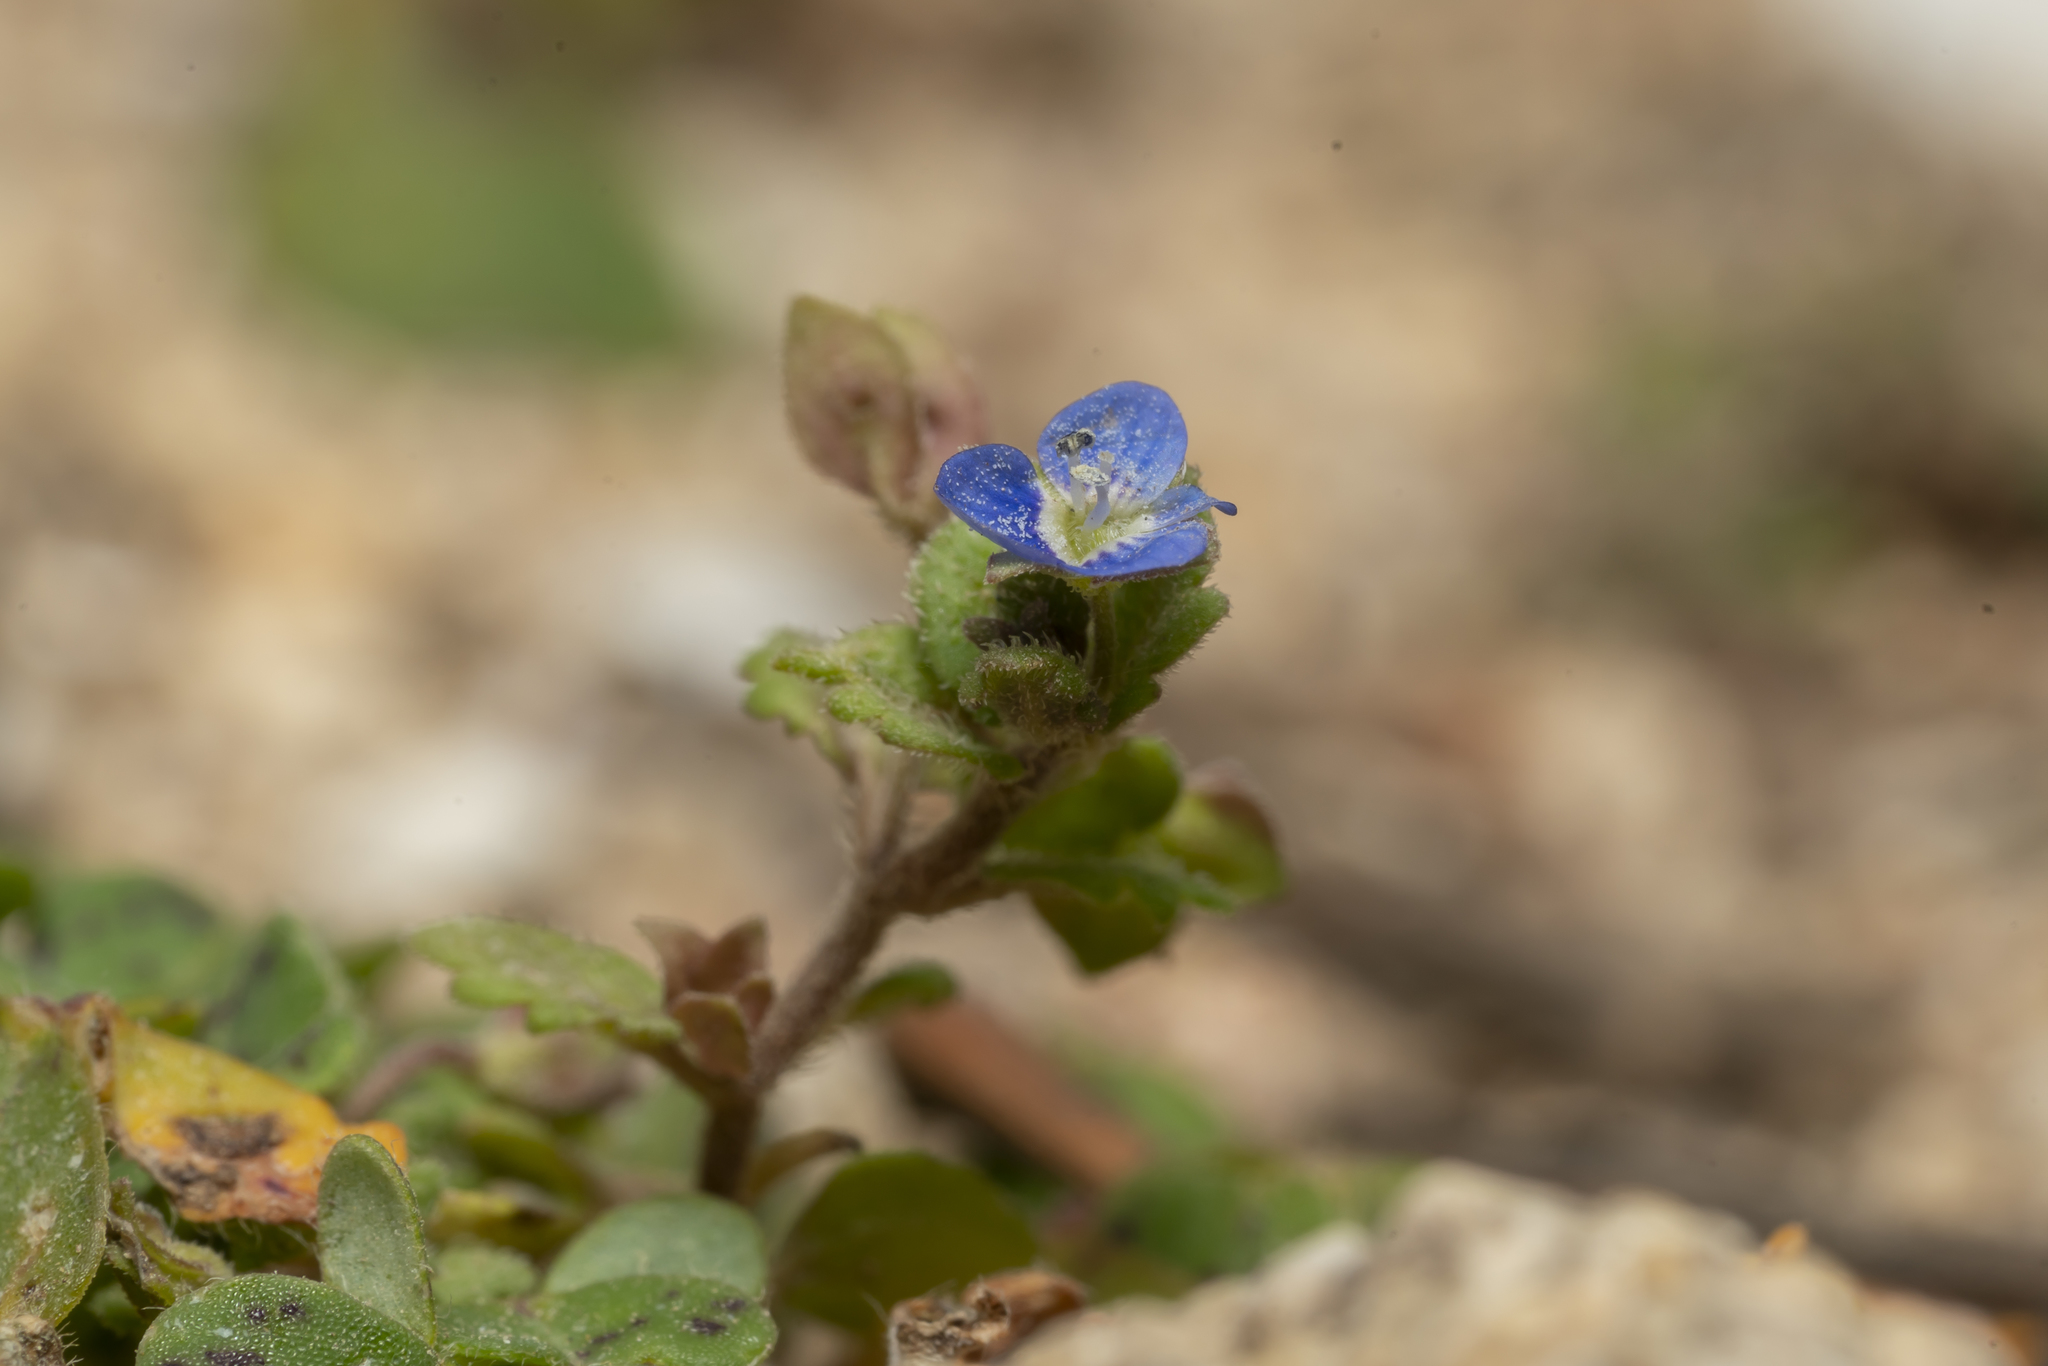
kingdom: Plantae
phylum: Tracheophyta
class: Magnoliopsida
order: Lamiales
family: Plantaginaceae
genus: Veronica
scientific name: Veronica polita
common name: Grey field-speedwell
